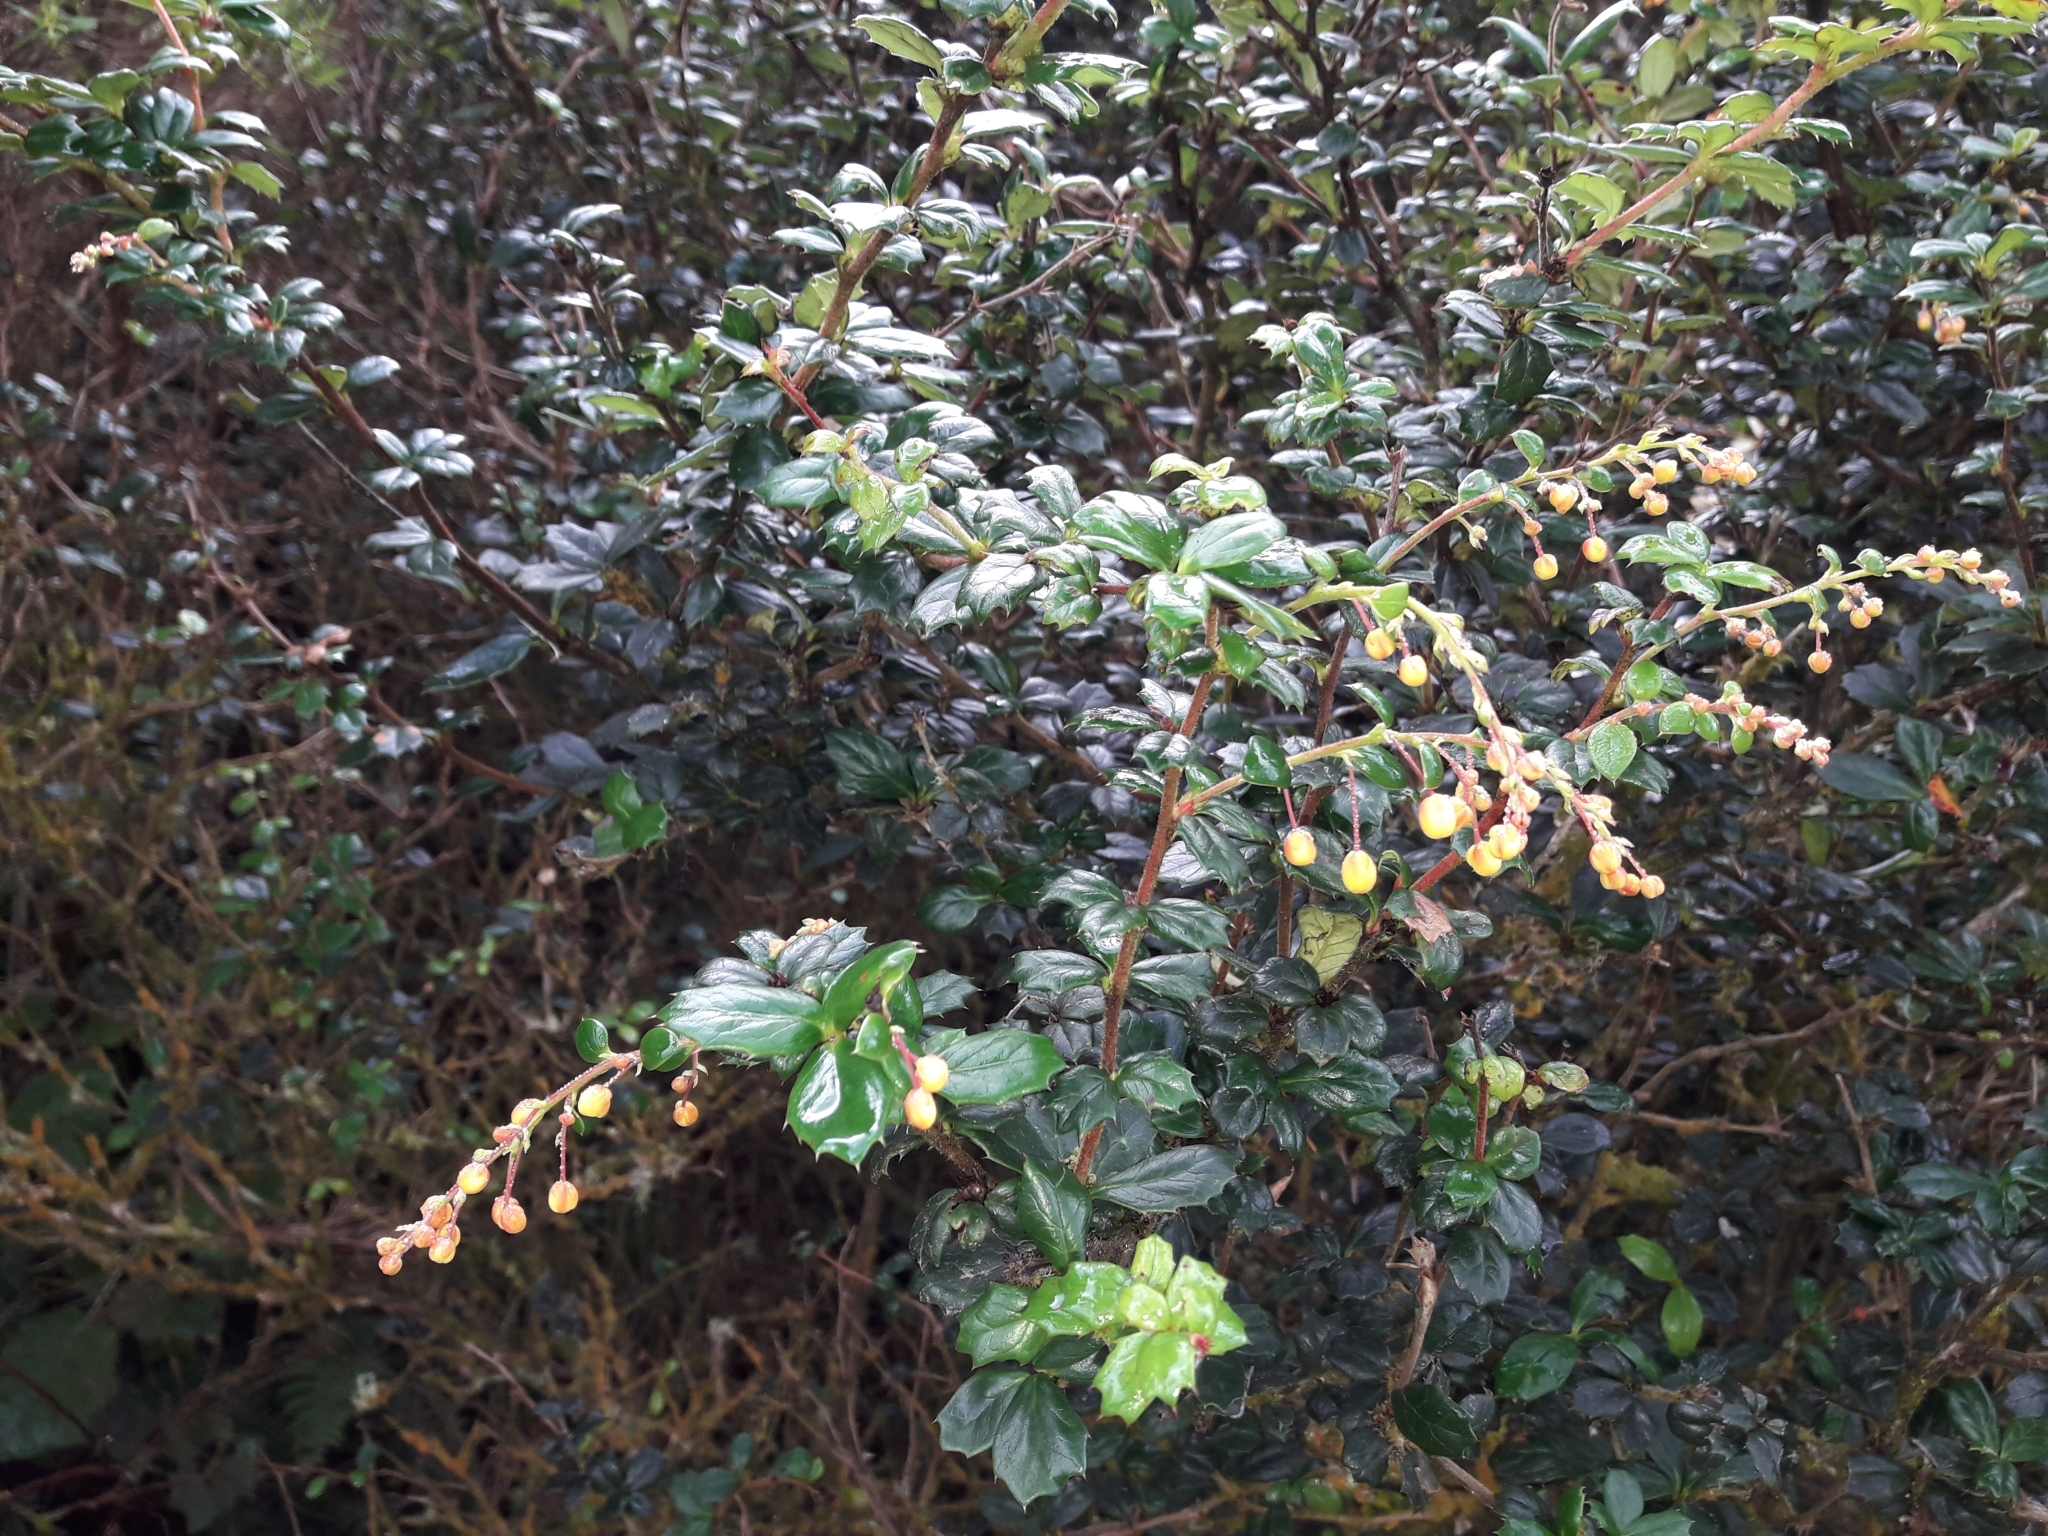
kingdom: Plantae
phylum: Tracheophyta
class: Magnoliopsida
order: Ranunculales
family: Berberidaceae
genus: Berberis
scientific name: Berberis darwinii
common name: Darwin's barberry
